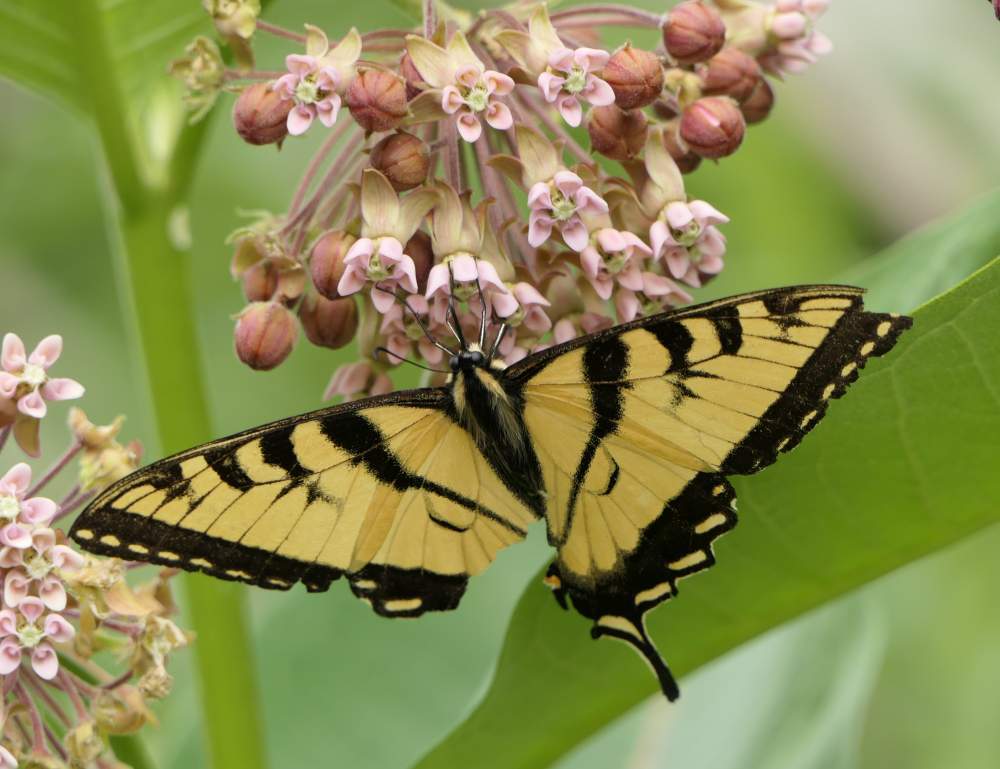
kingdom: Animalia
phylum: Arthropoda
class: Insecta
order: Lepidoptera
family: Papilionidae
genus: Papilio
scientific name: Papilio canadensis
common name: Canadian tiger swallowtail
